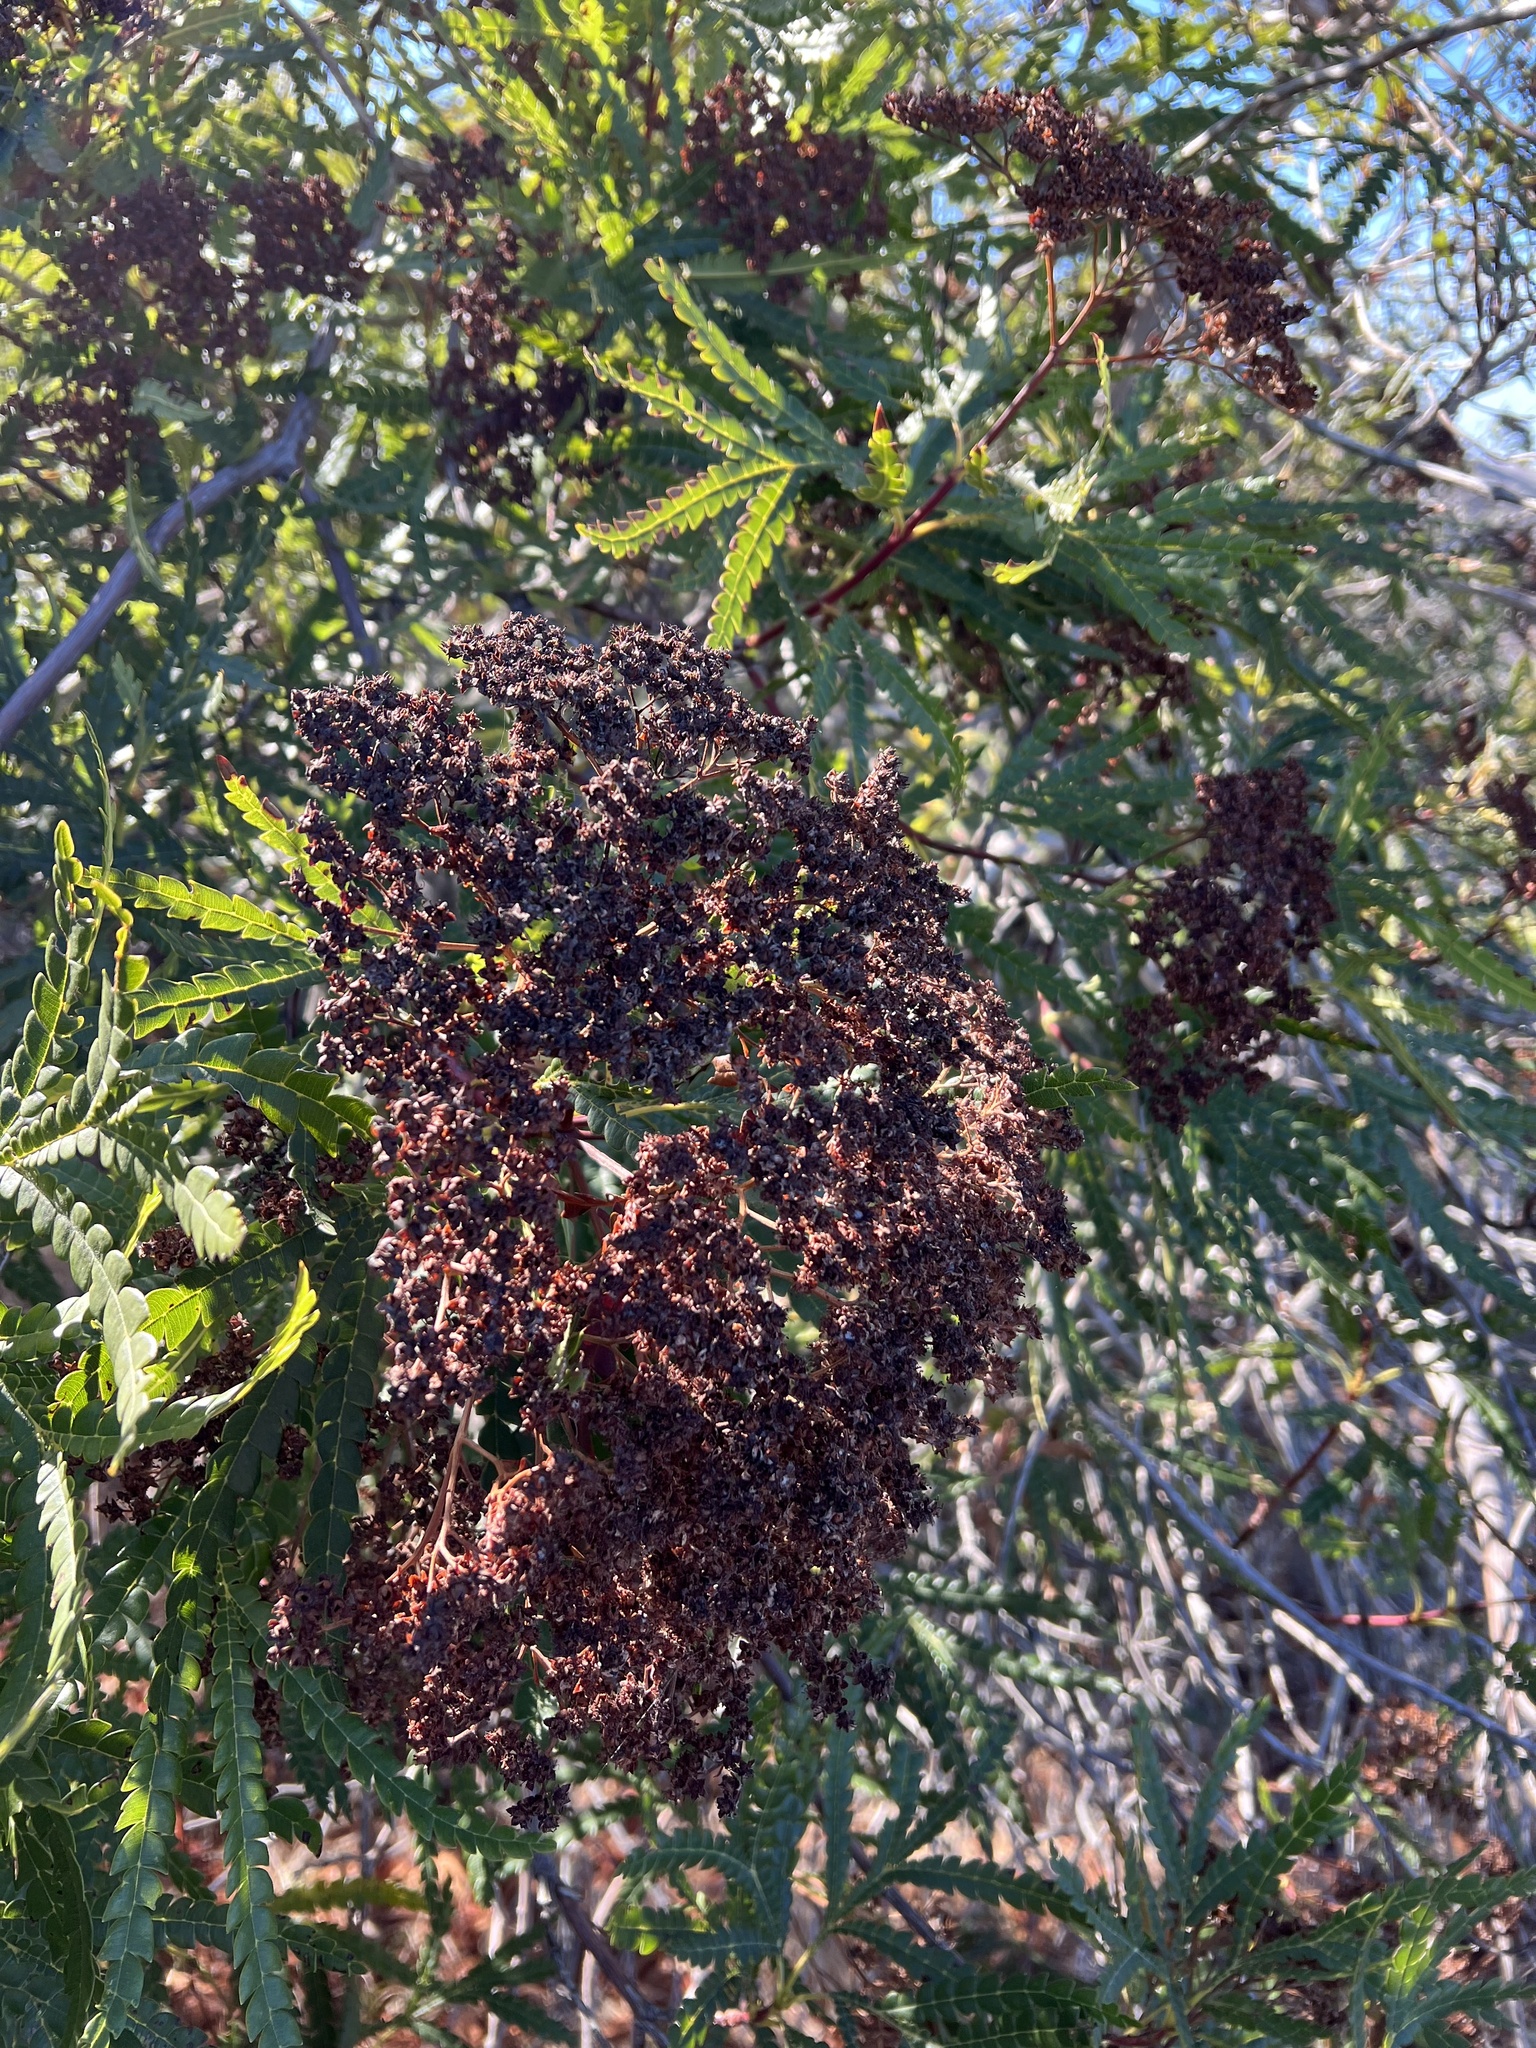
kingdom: Plantae
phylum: Tracheophyta
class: Magnoliopsida
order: Rosales
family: Rosaceae
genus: Lyonothamnus
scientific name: Lyonothamnus floribundus
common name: Catalina ironwood
